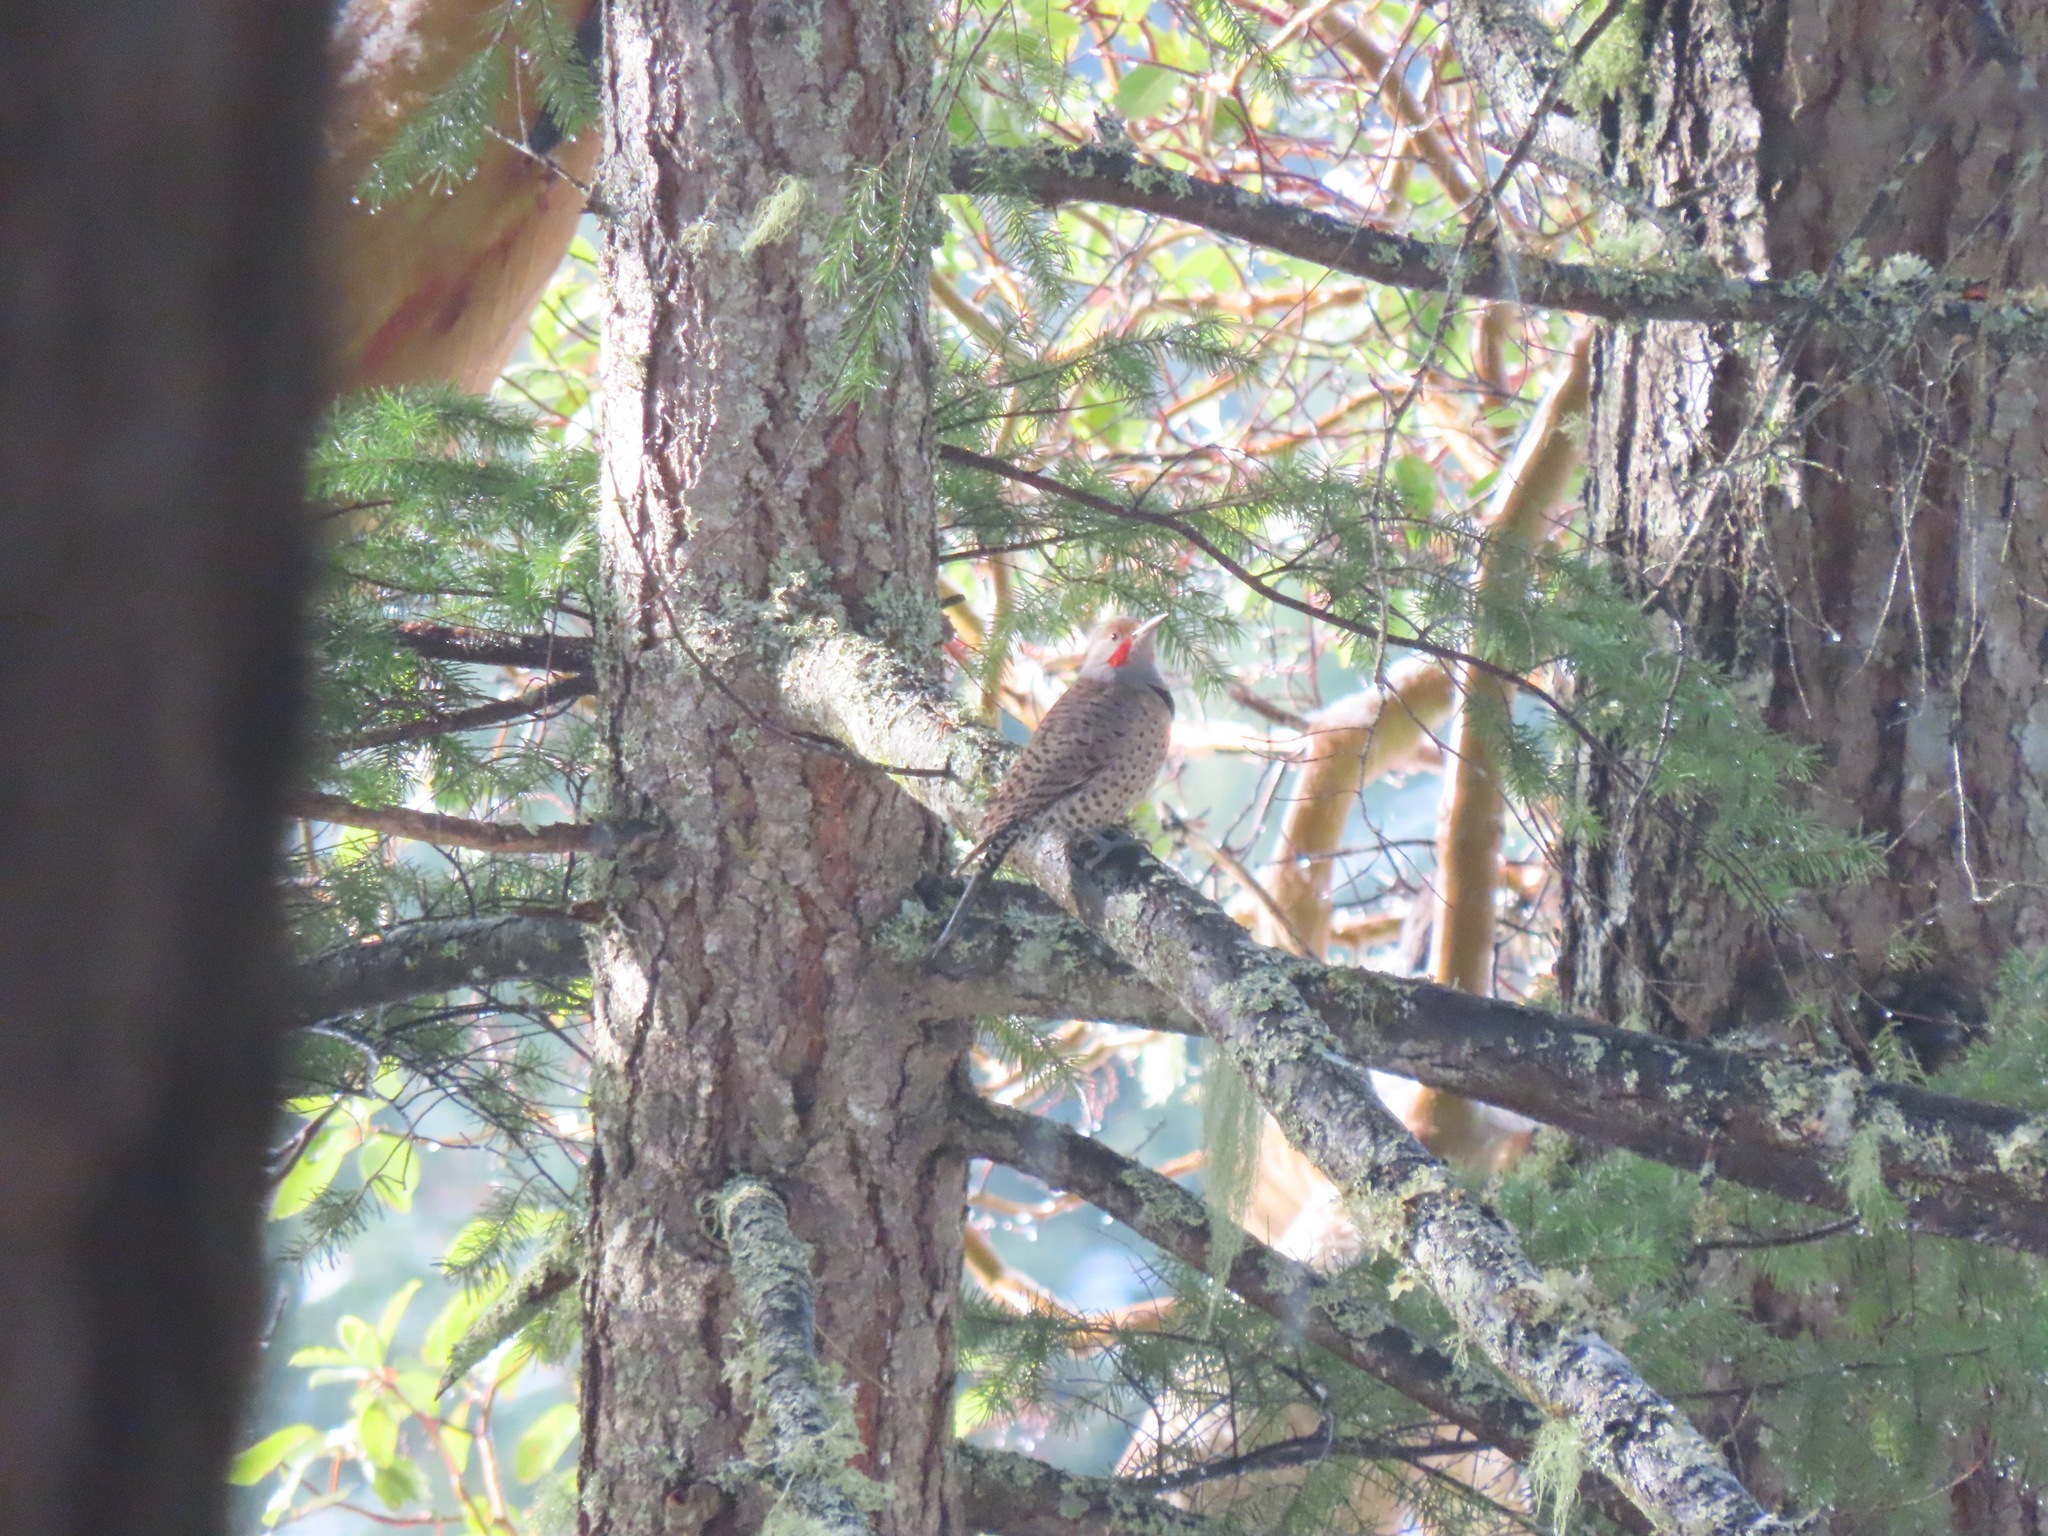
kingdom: Animalia
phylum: Chordata
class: Aves
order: Piciformes
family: Picidae
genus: Colaptes
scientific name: Colaptes auratus
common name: Northern flicker
